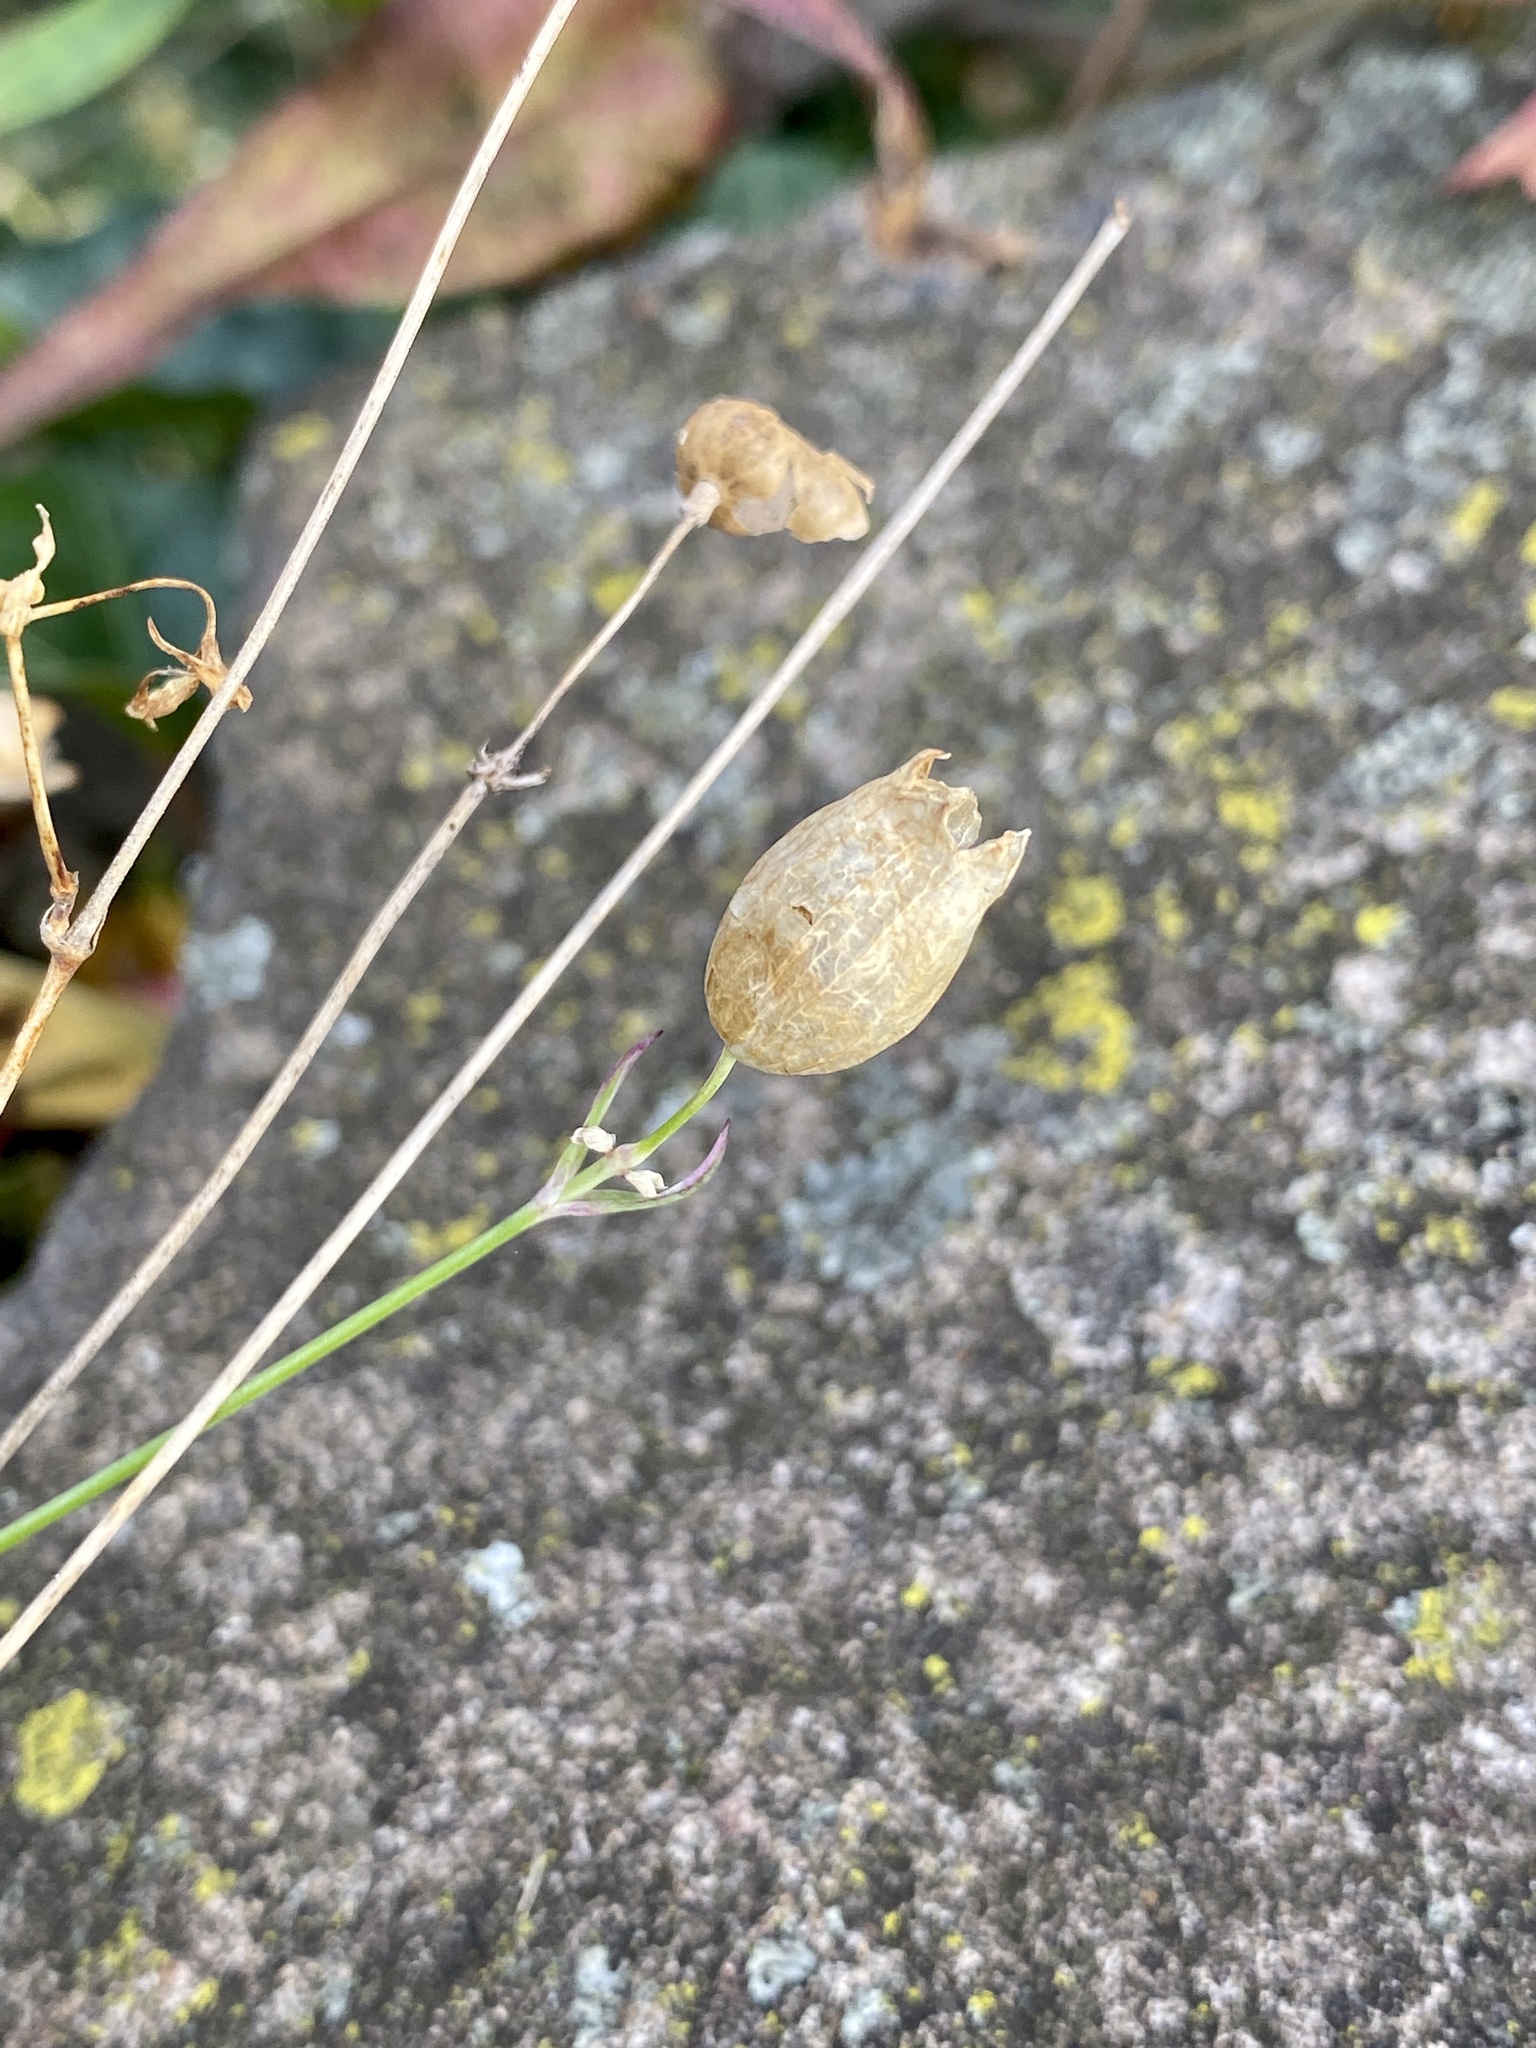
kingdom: Plantae
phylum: Tracheophyta
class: Magnoliopsida
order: Caryophyllales
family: Caryophyllaceae
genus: Silene
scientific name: Silene vulgaris
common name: Bladder campion
